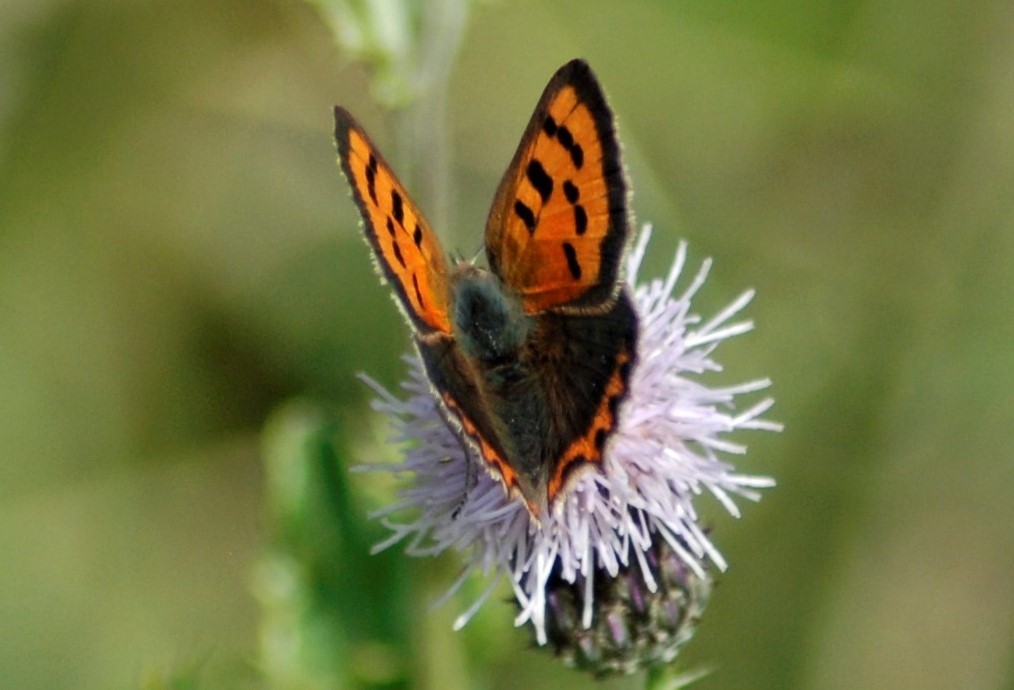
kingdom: Animalia
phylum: Arthropoda
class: Insecta
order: Lepidoptera
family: Lycaenidae
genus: Lycaena
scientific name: Lycaena phlaeas
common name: Small copper
